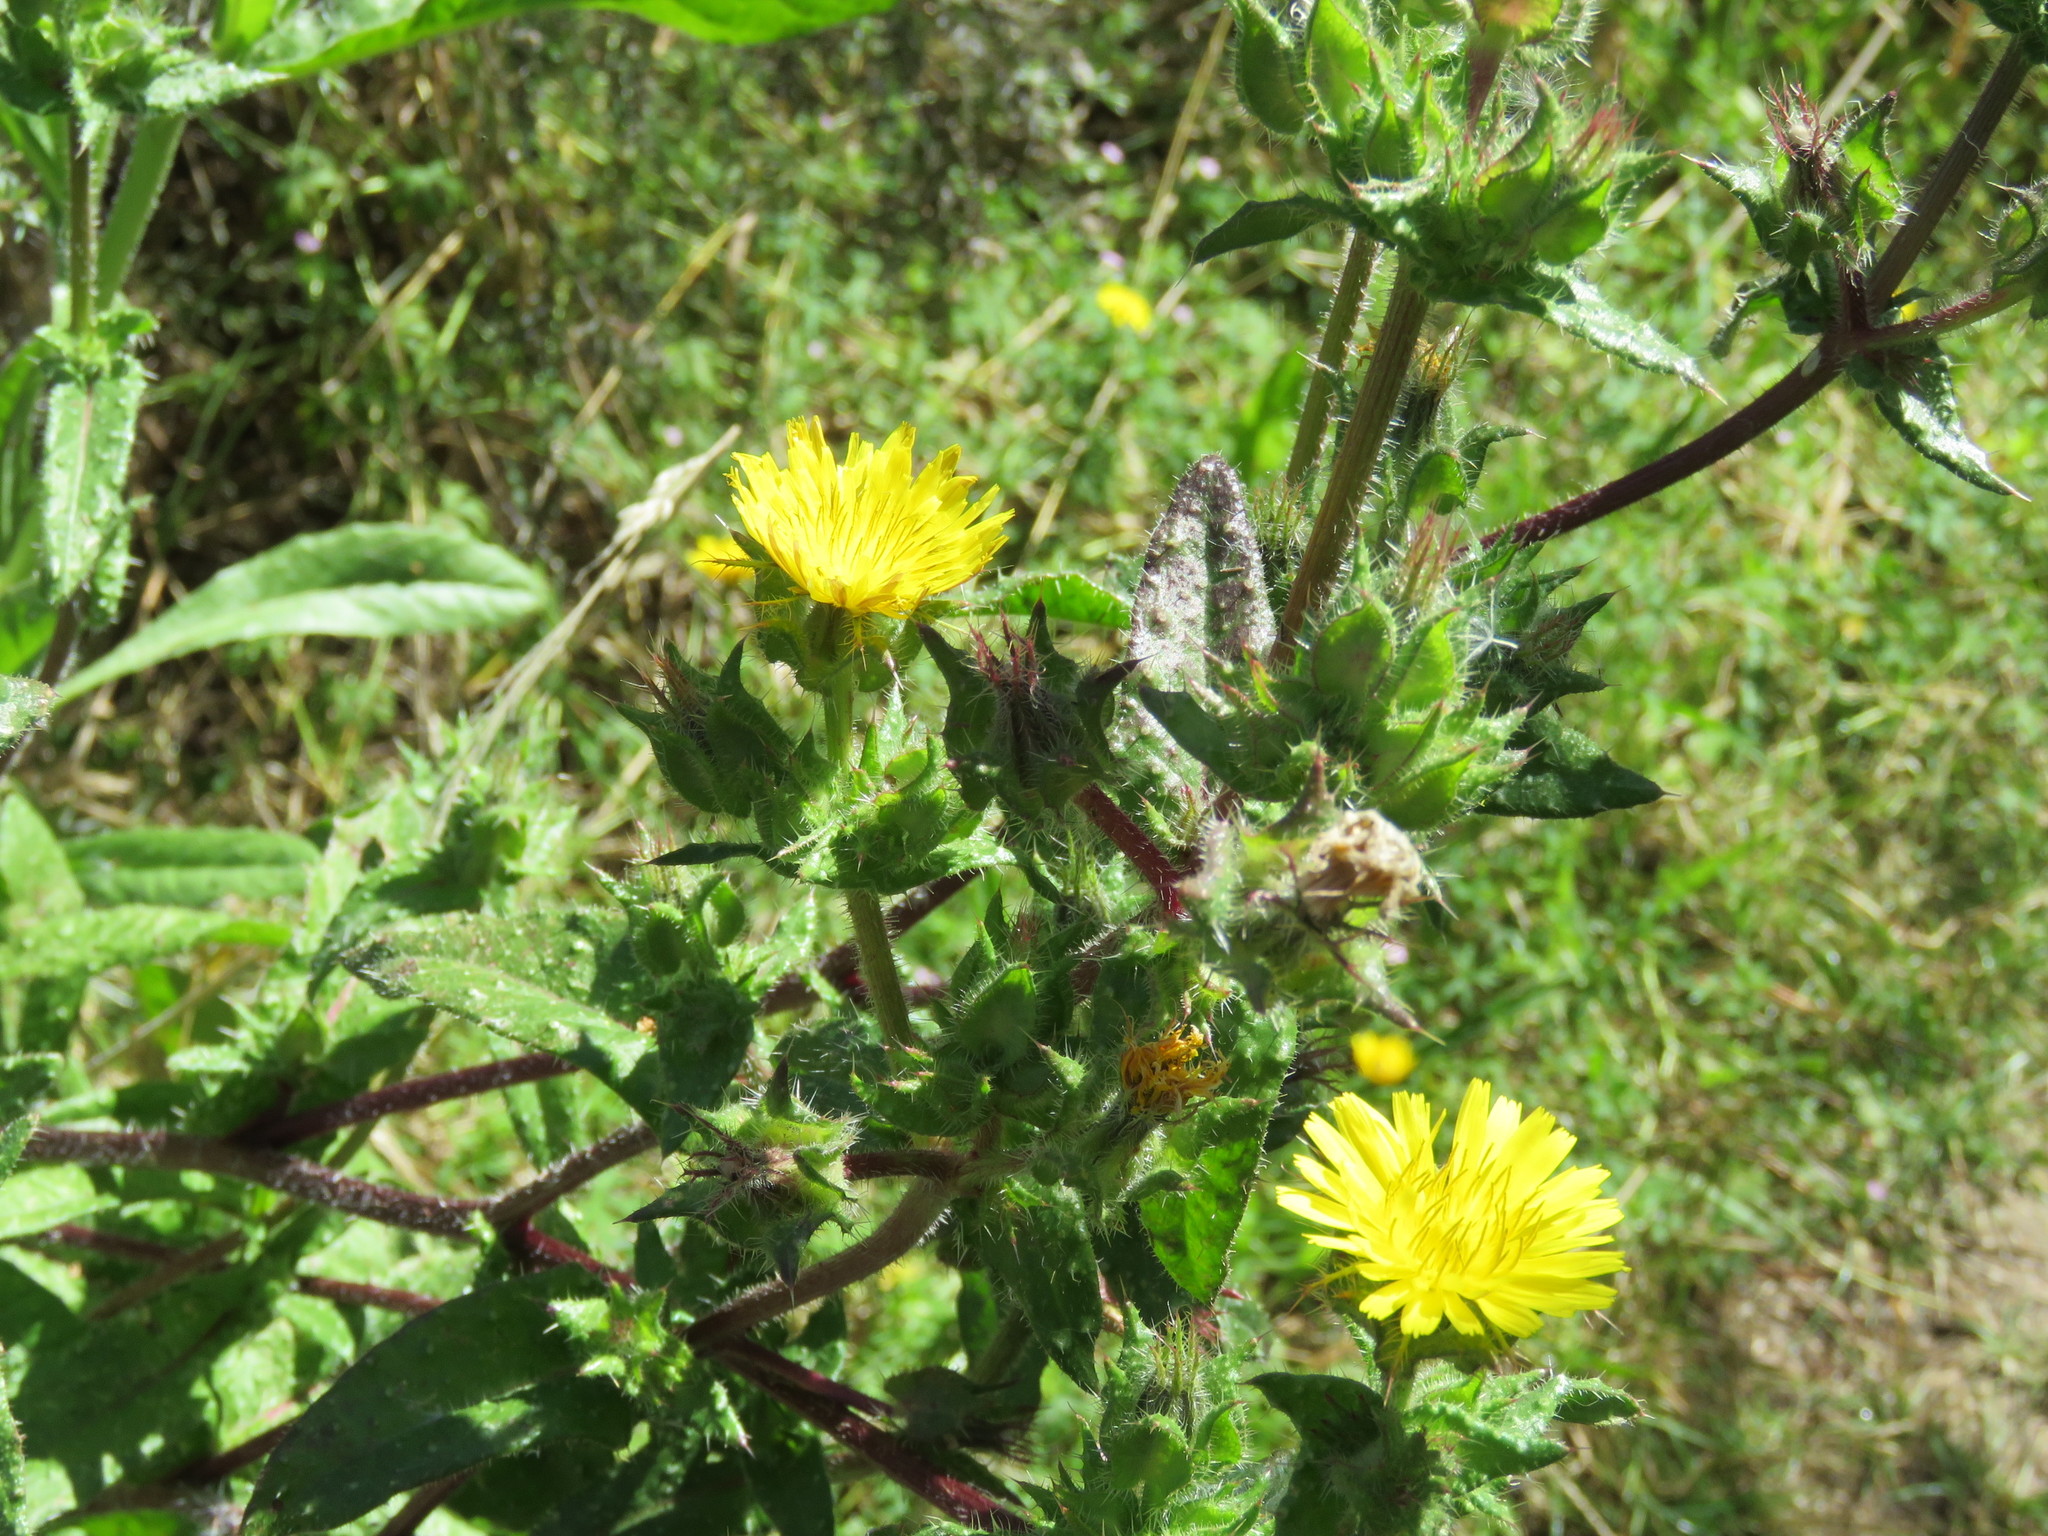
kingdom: Plantae
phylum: Tracheophyta
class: Magnoliopsida
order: Asterales
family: Asteraceae
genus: Helminthotheca
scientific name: Helminthotheca echioides
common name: Ox-tongue
